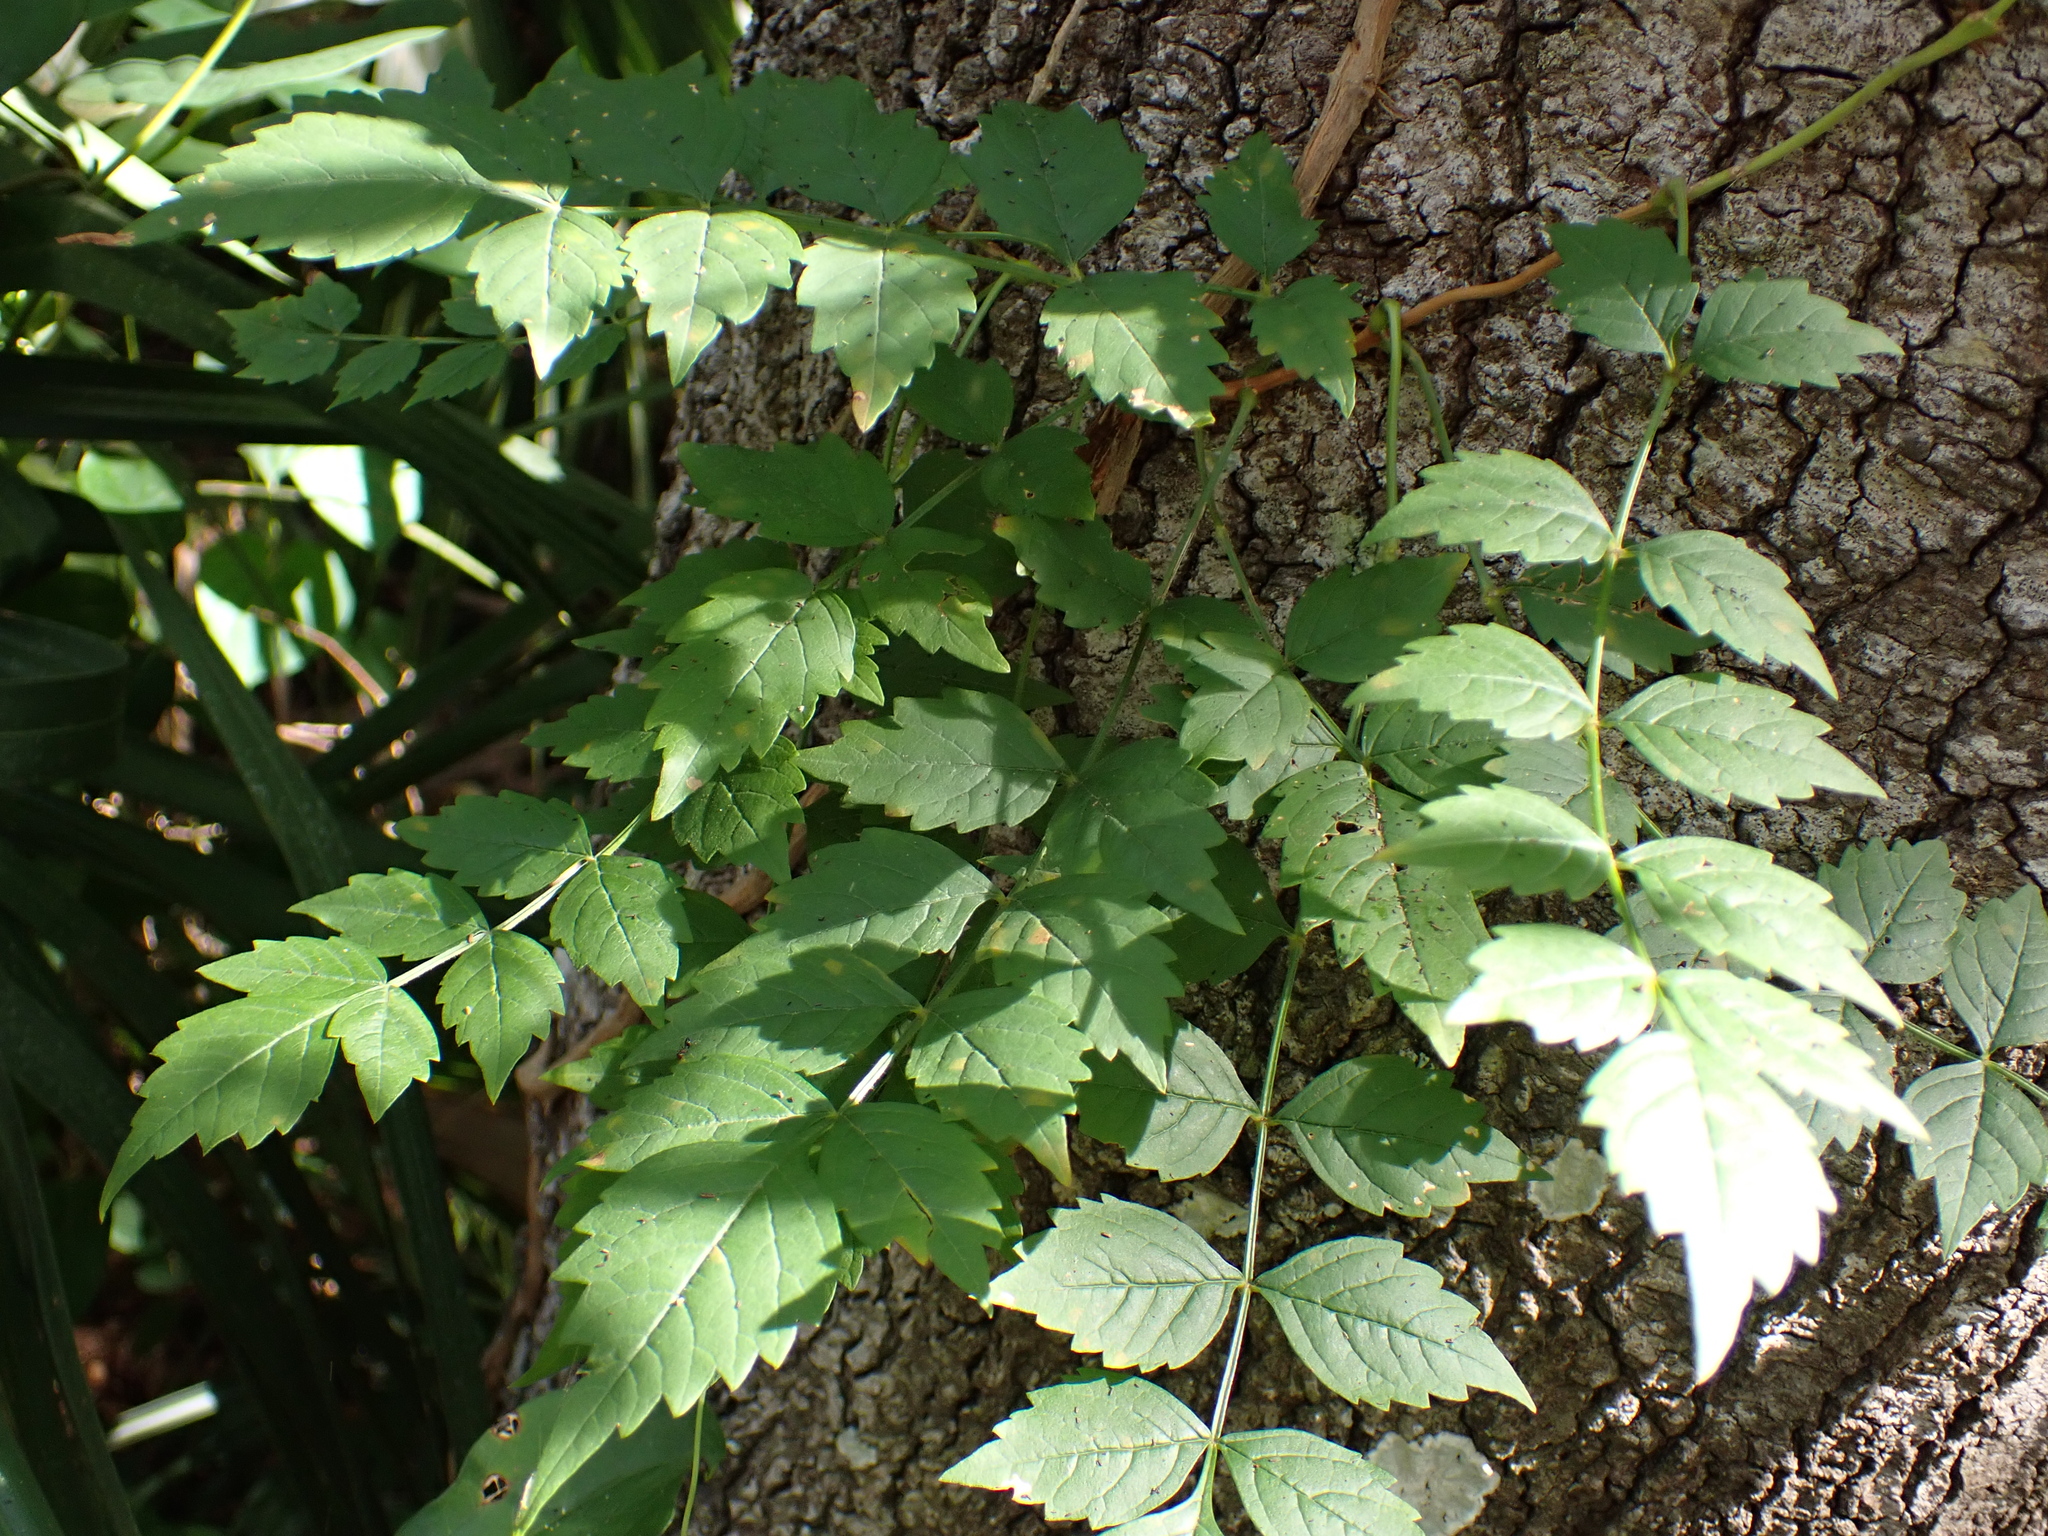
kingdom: Plantae
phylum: Tracheophyta
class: Magnoliopsida
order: Lamiales
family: Bignoniaceae
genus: Campsis
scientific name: Campsis radicans
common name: Trumpet-creeper
